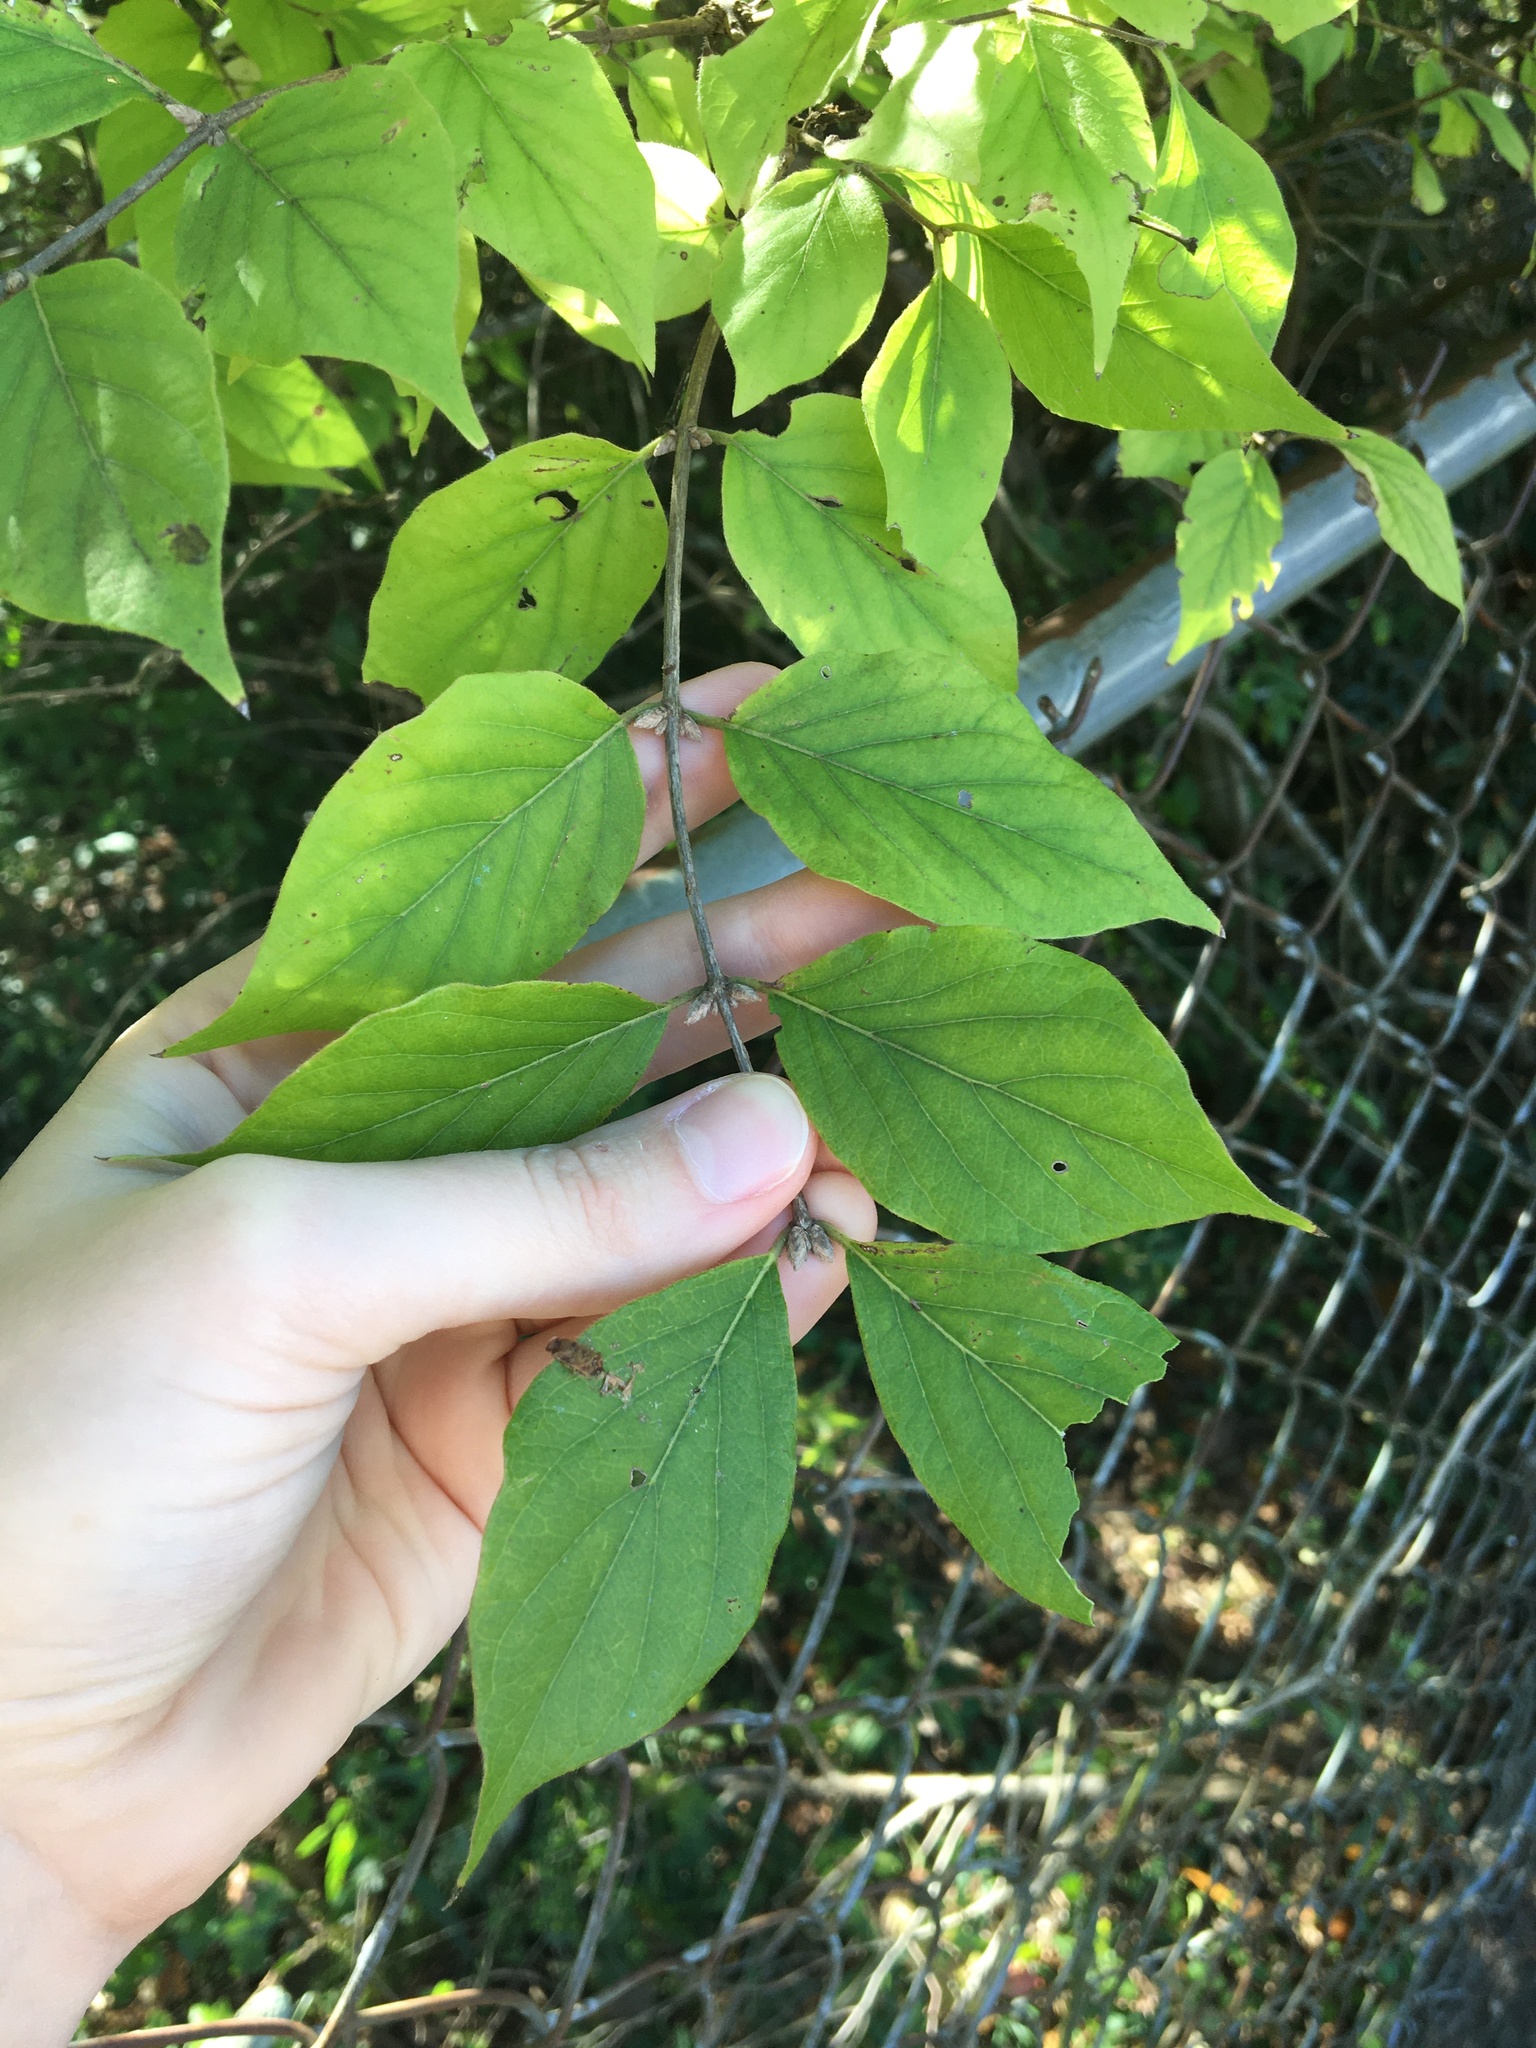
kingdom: Plantae
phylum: Tracheophyta
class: Magnoliopsida
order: Dipsacales
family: Caprifoliaceae
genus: Lonicera
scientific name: Lonicera maackii
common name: Amur honeysuckle
